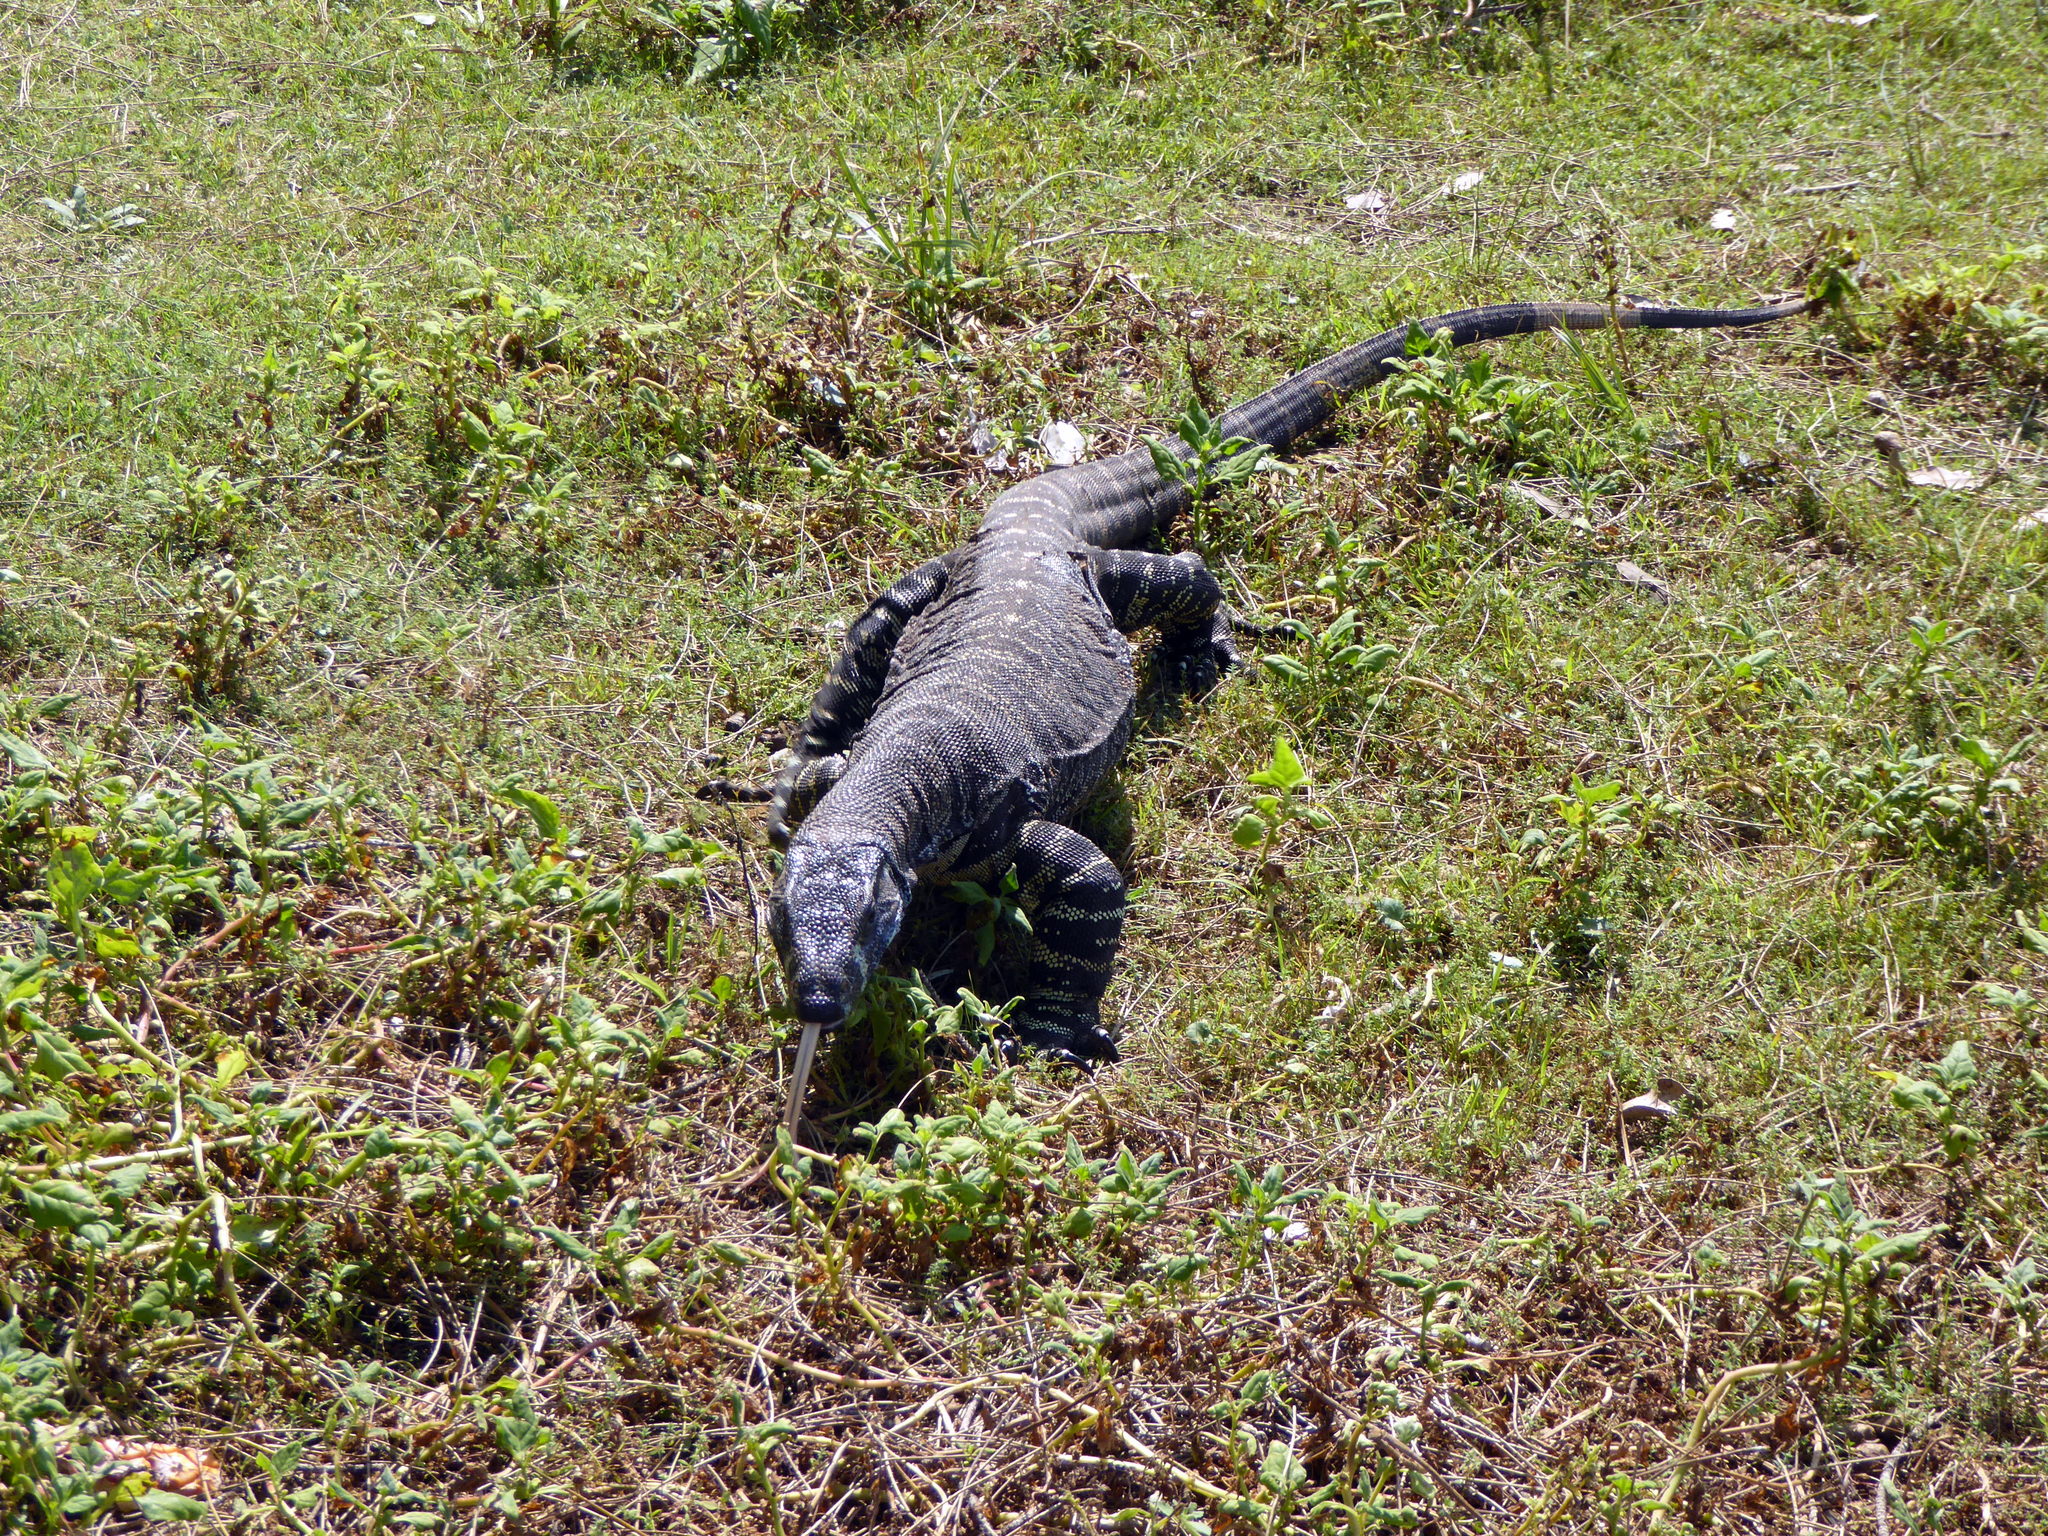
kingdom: Animalia
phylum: Chordata
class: Squamata
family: Varanidae
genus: Varanus
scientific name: Varanus varius
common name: Lace monitor
